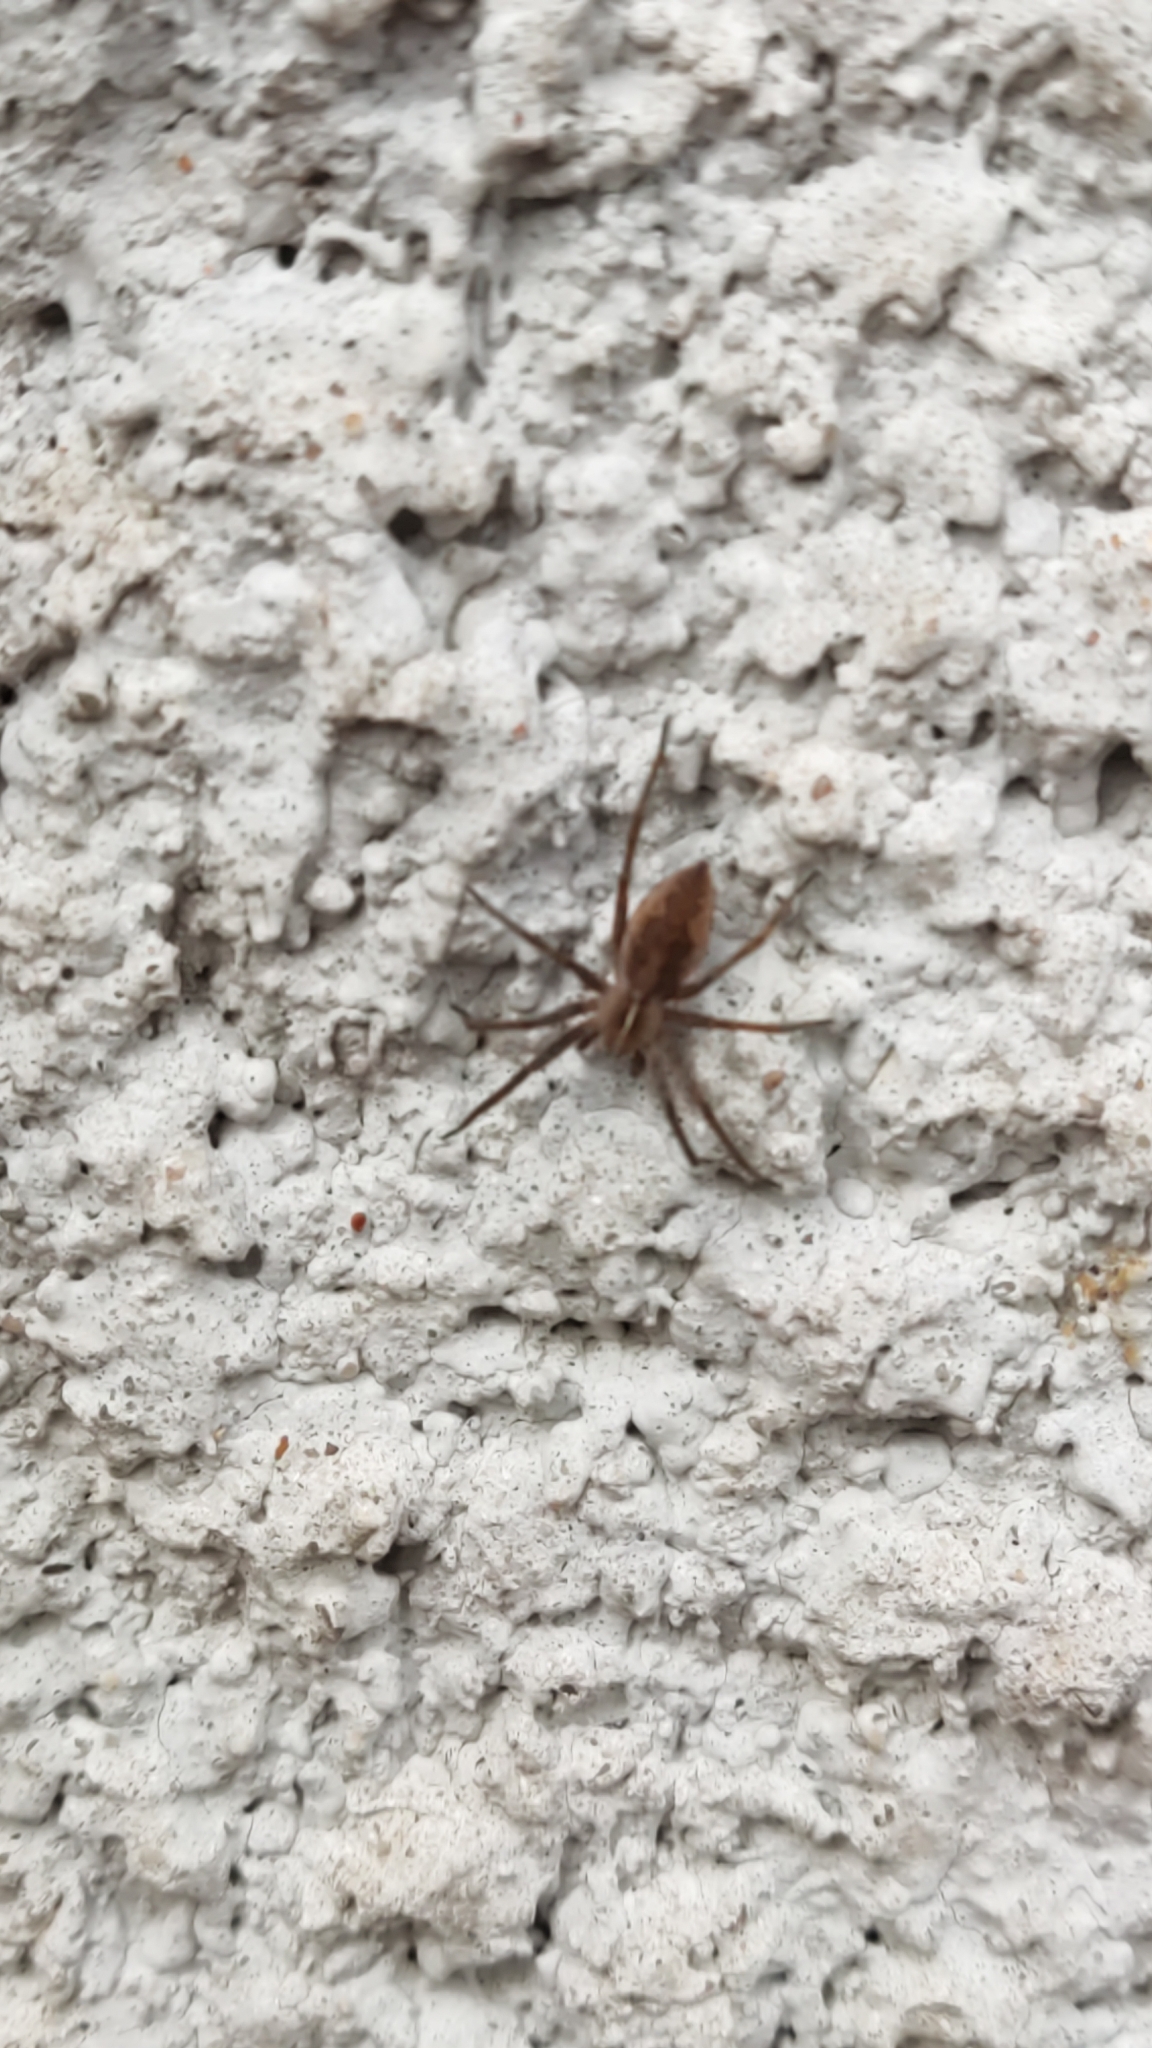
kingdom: Animalia
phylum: Arthropoda
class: Arachnida
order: Araneae
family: Pisauridae
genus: Pisaura
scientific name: Pisaura mirabilis
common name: Tent spider
